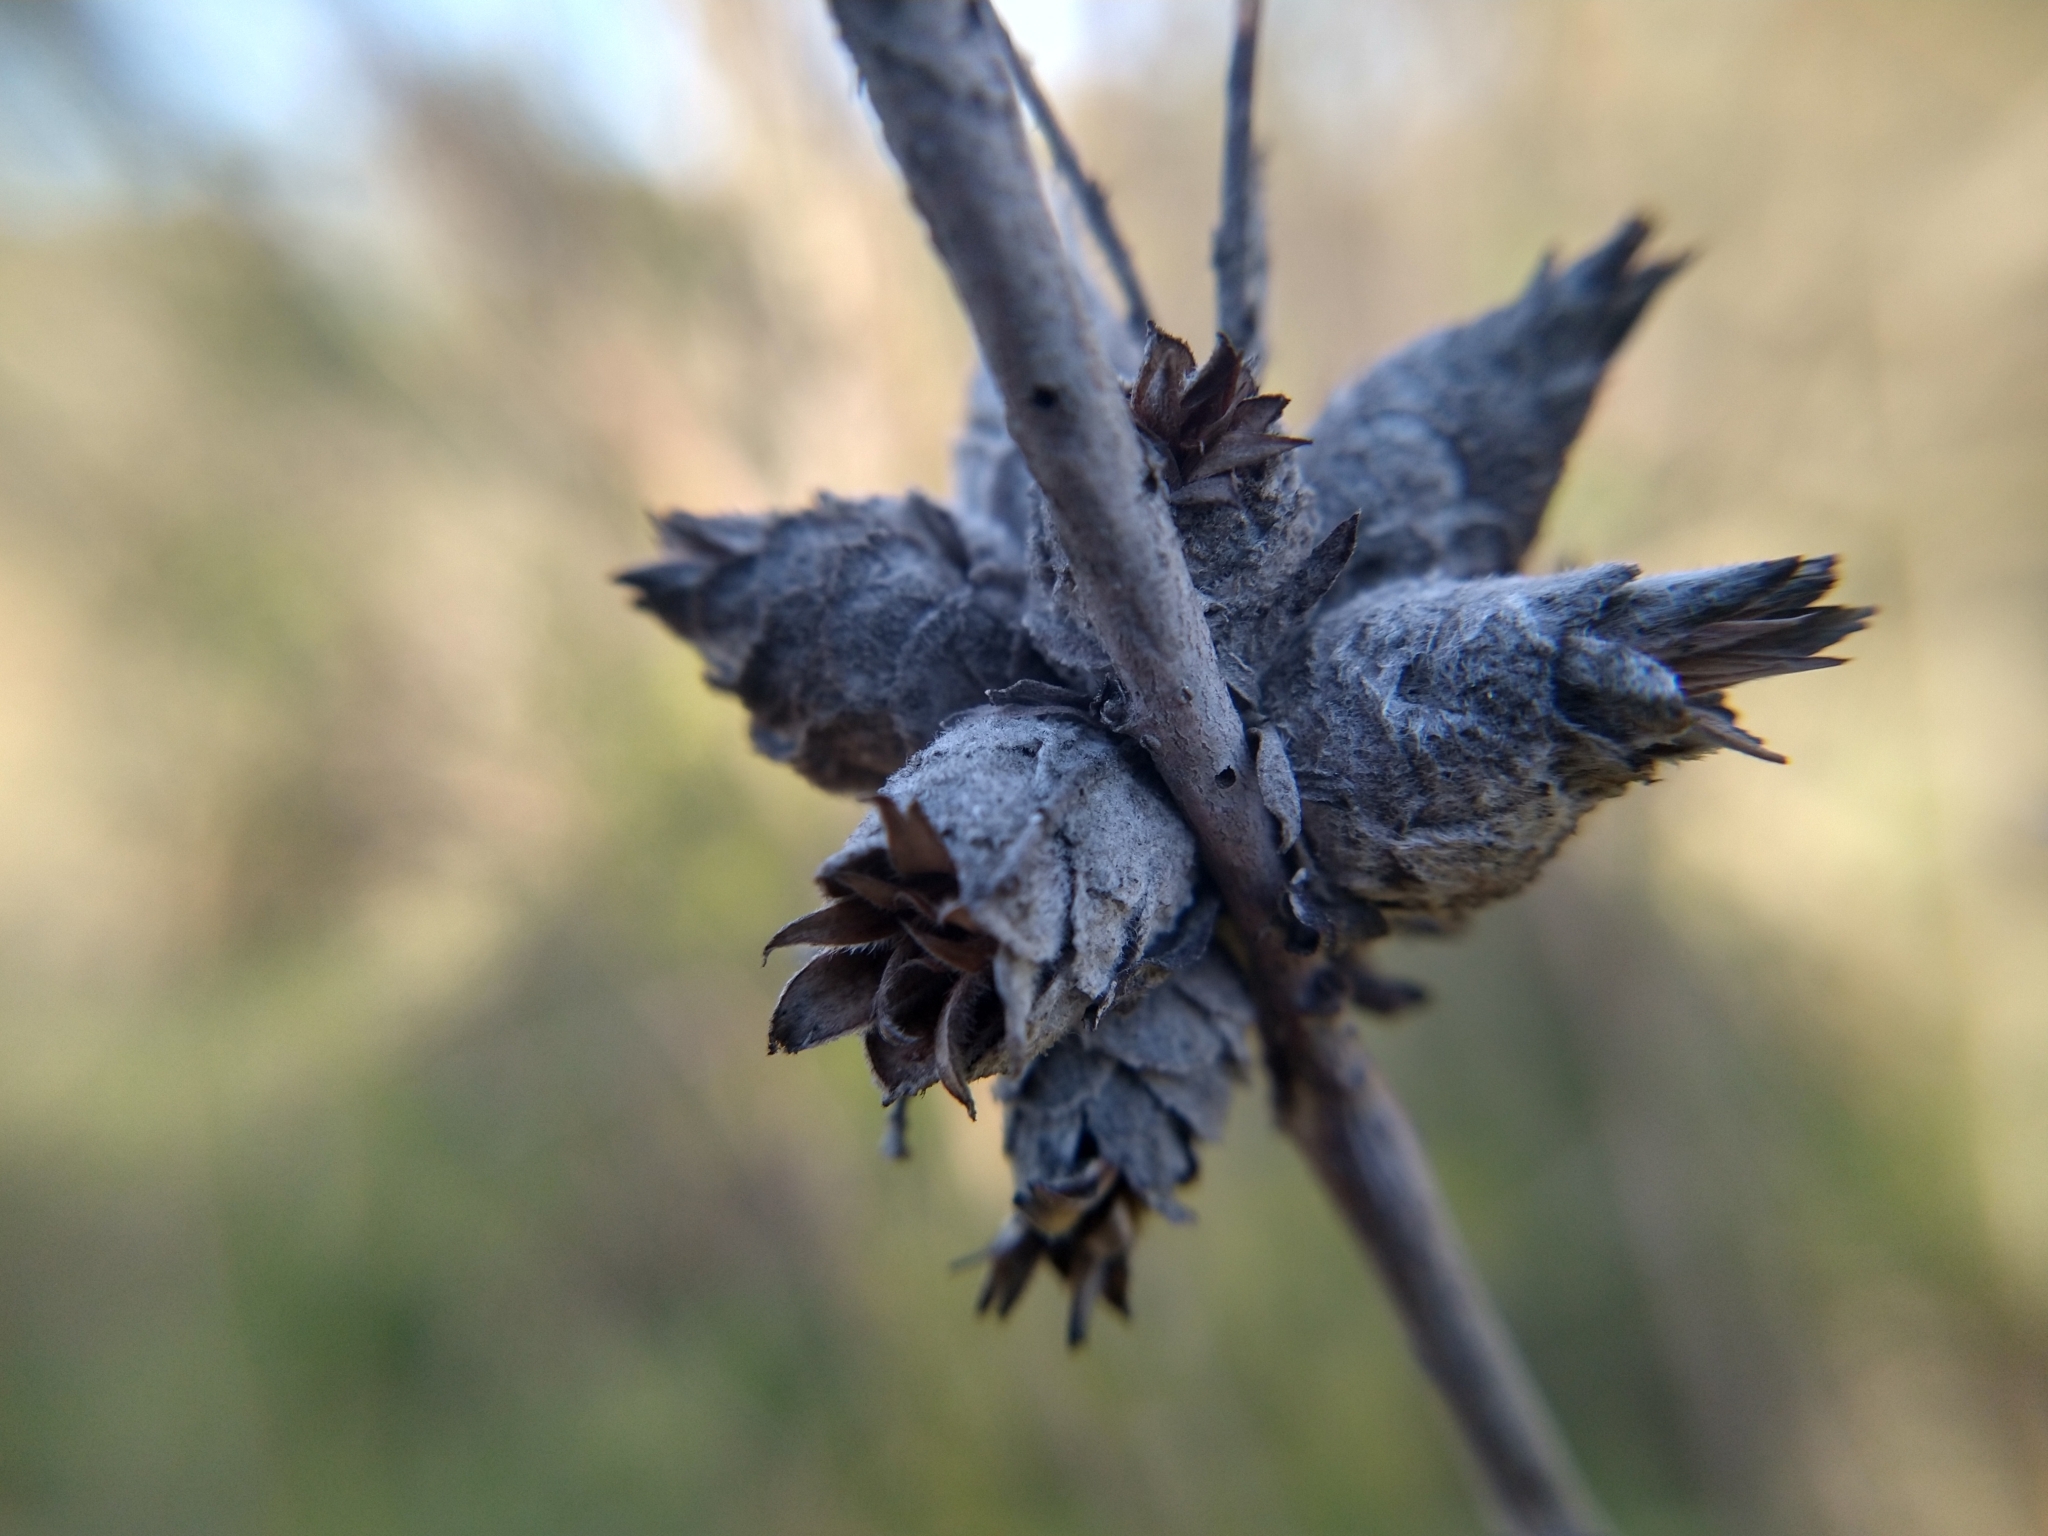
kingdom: Animalia
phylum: Arthropoda
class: Insecta
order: Diptera
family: Cecidomyiidae
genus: Rabdophaga
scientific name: Rabdophaga strobiloides
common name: Willow pinecone gall midge
